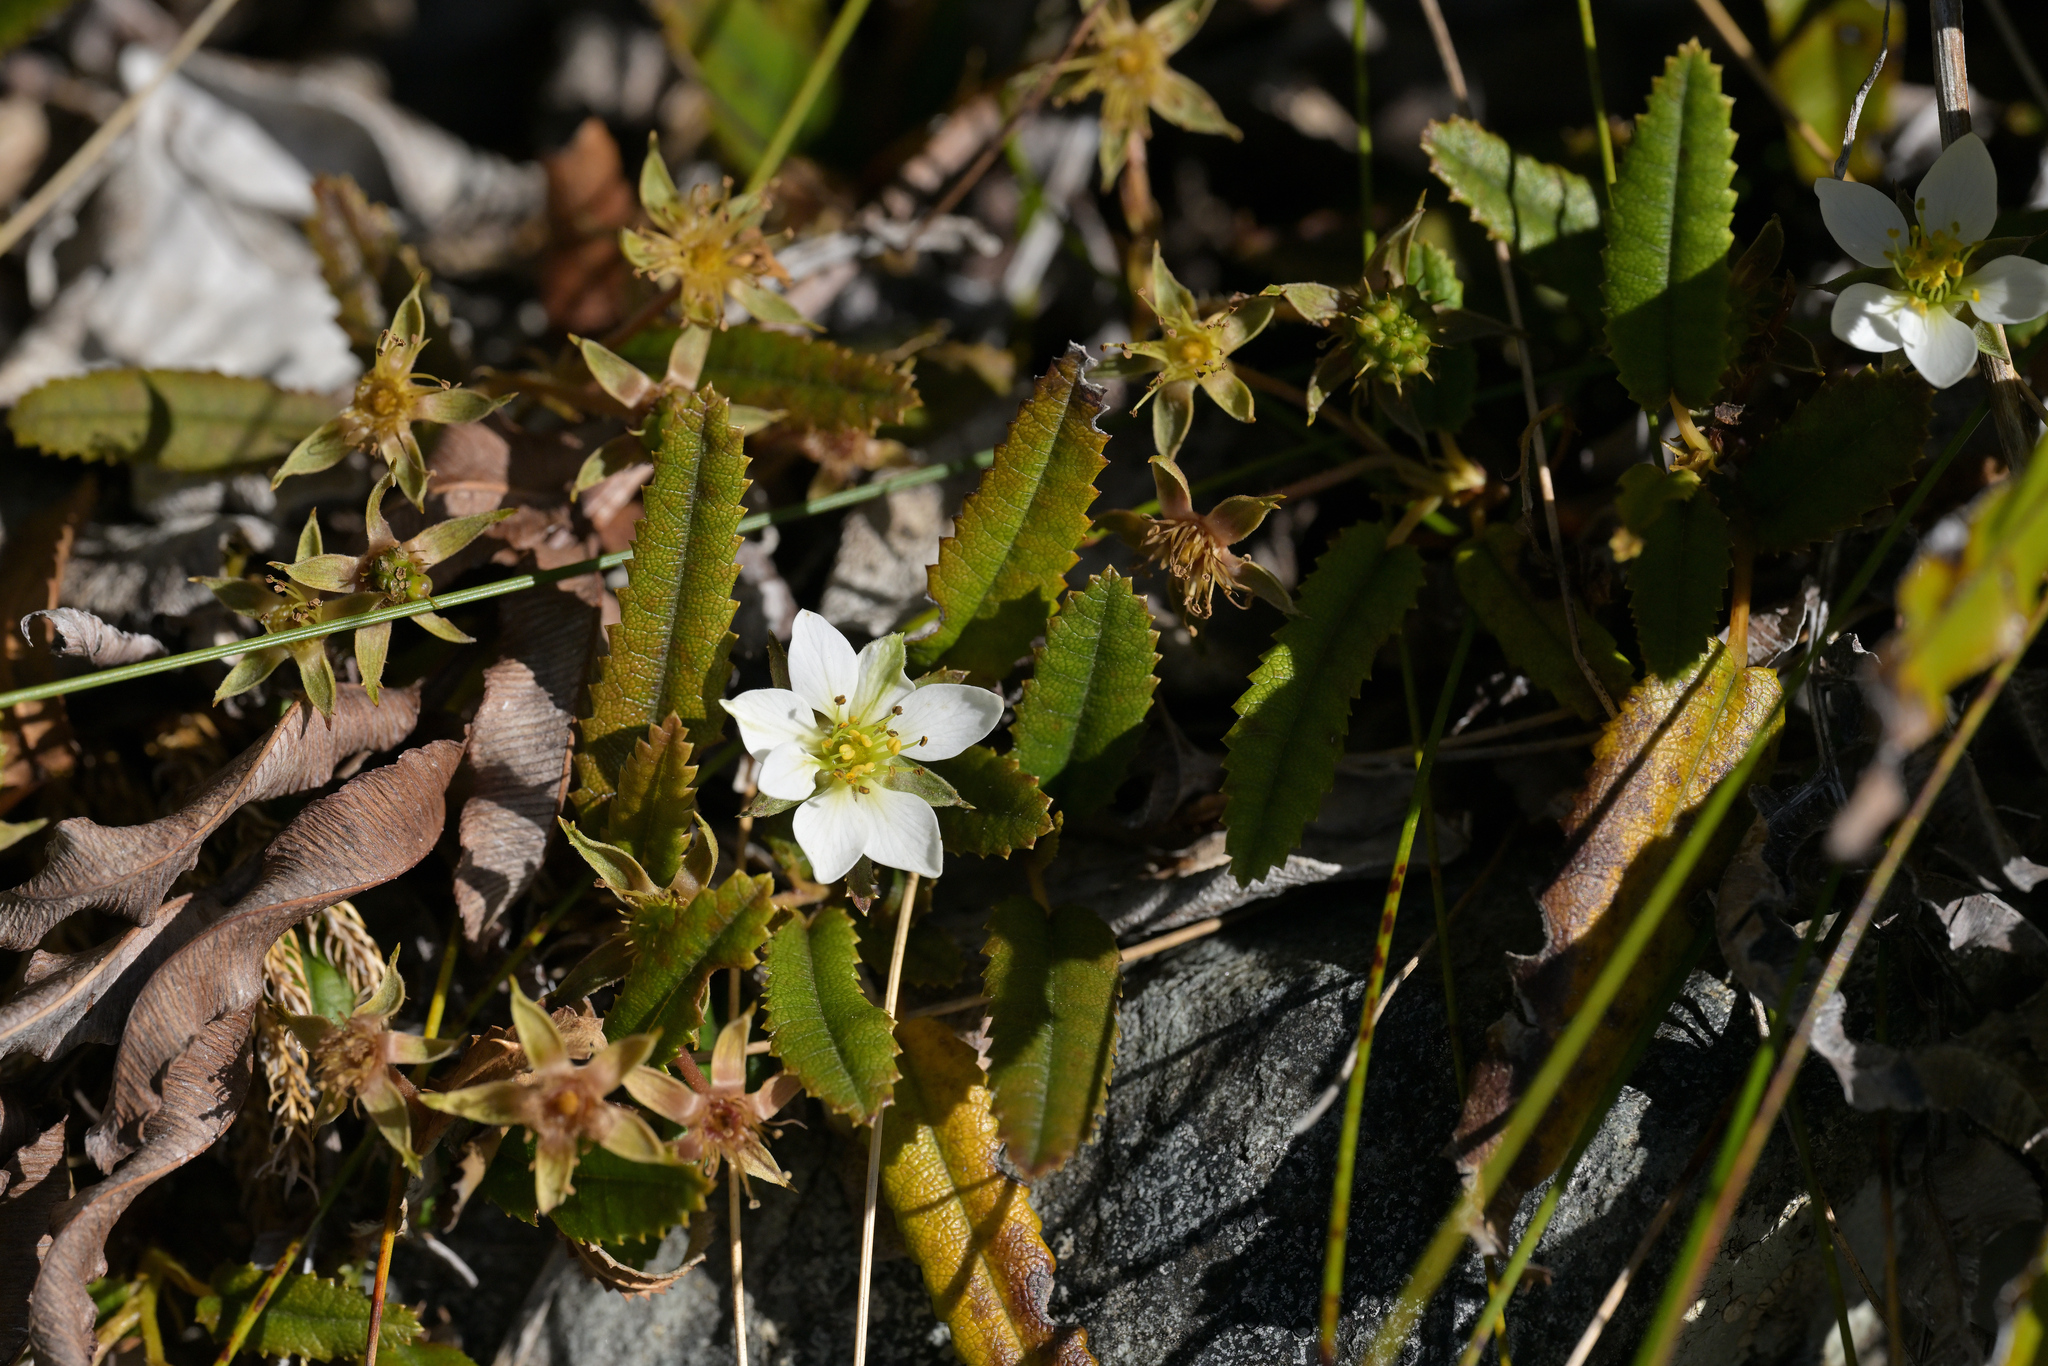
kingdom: Plantae
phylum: Tracheophyta
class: Magnoliopsida
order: Rosales
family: Rosaceae
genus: Rubus
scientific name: Rubus parvus
